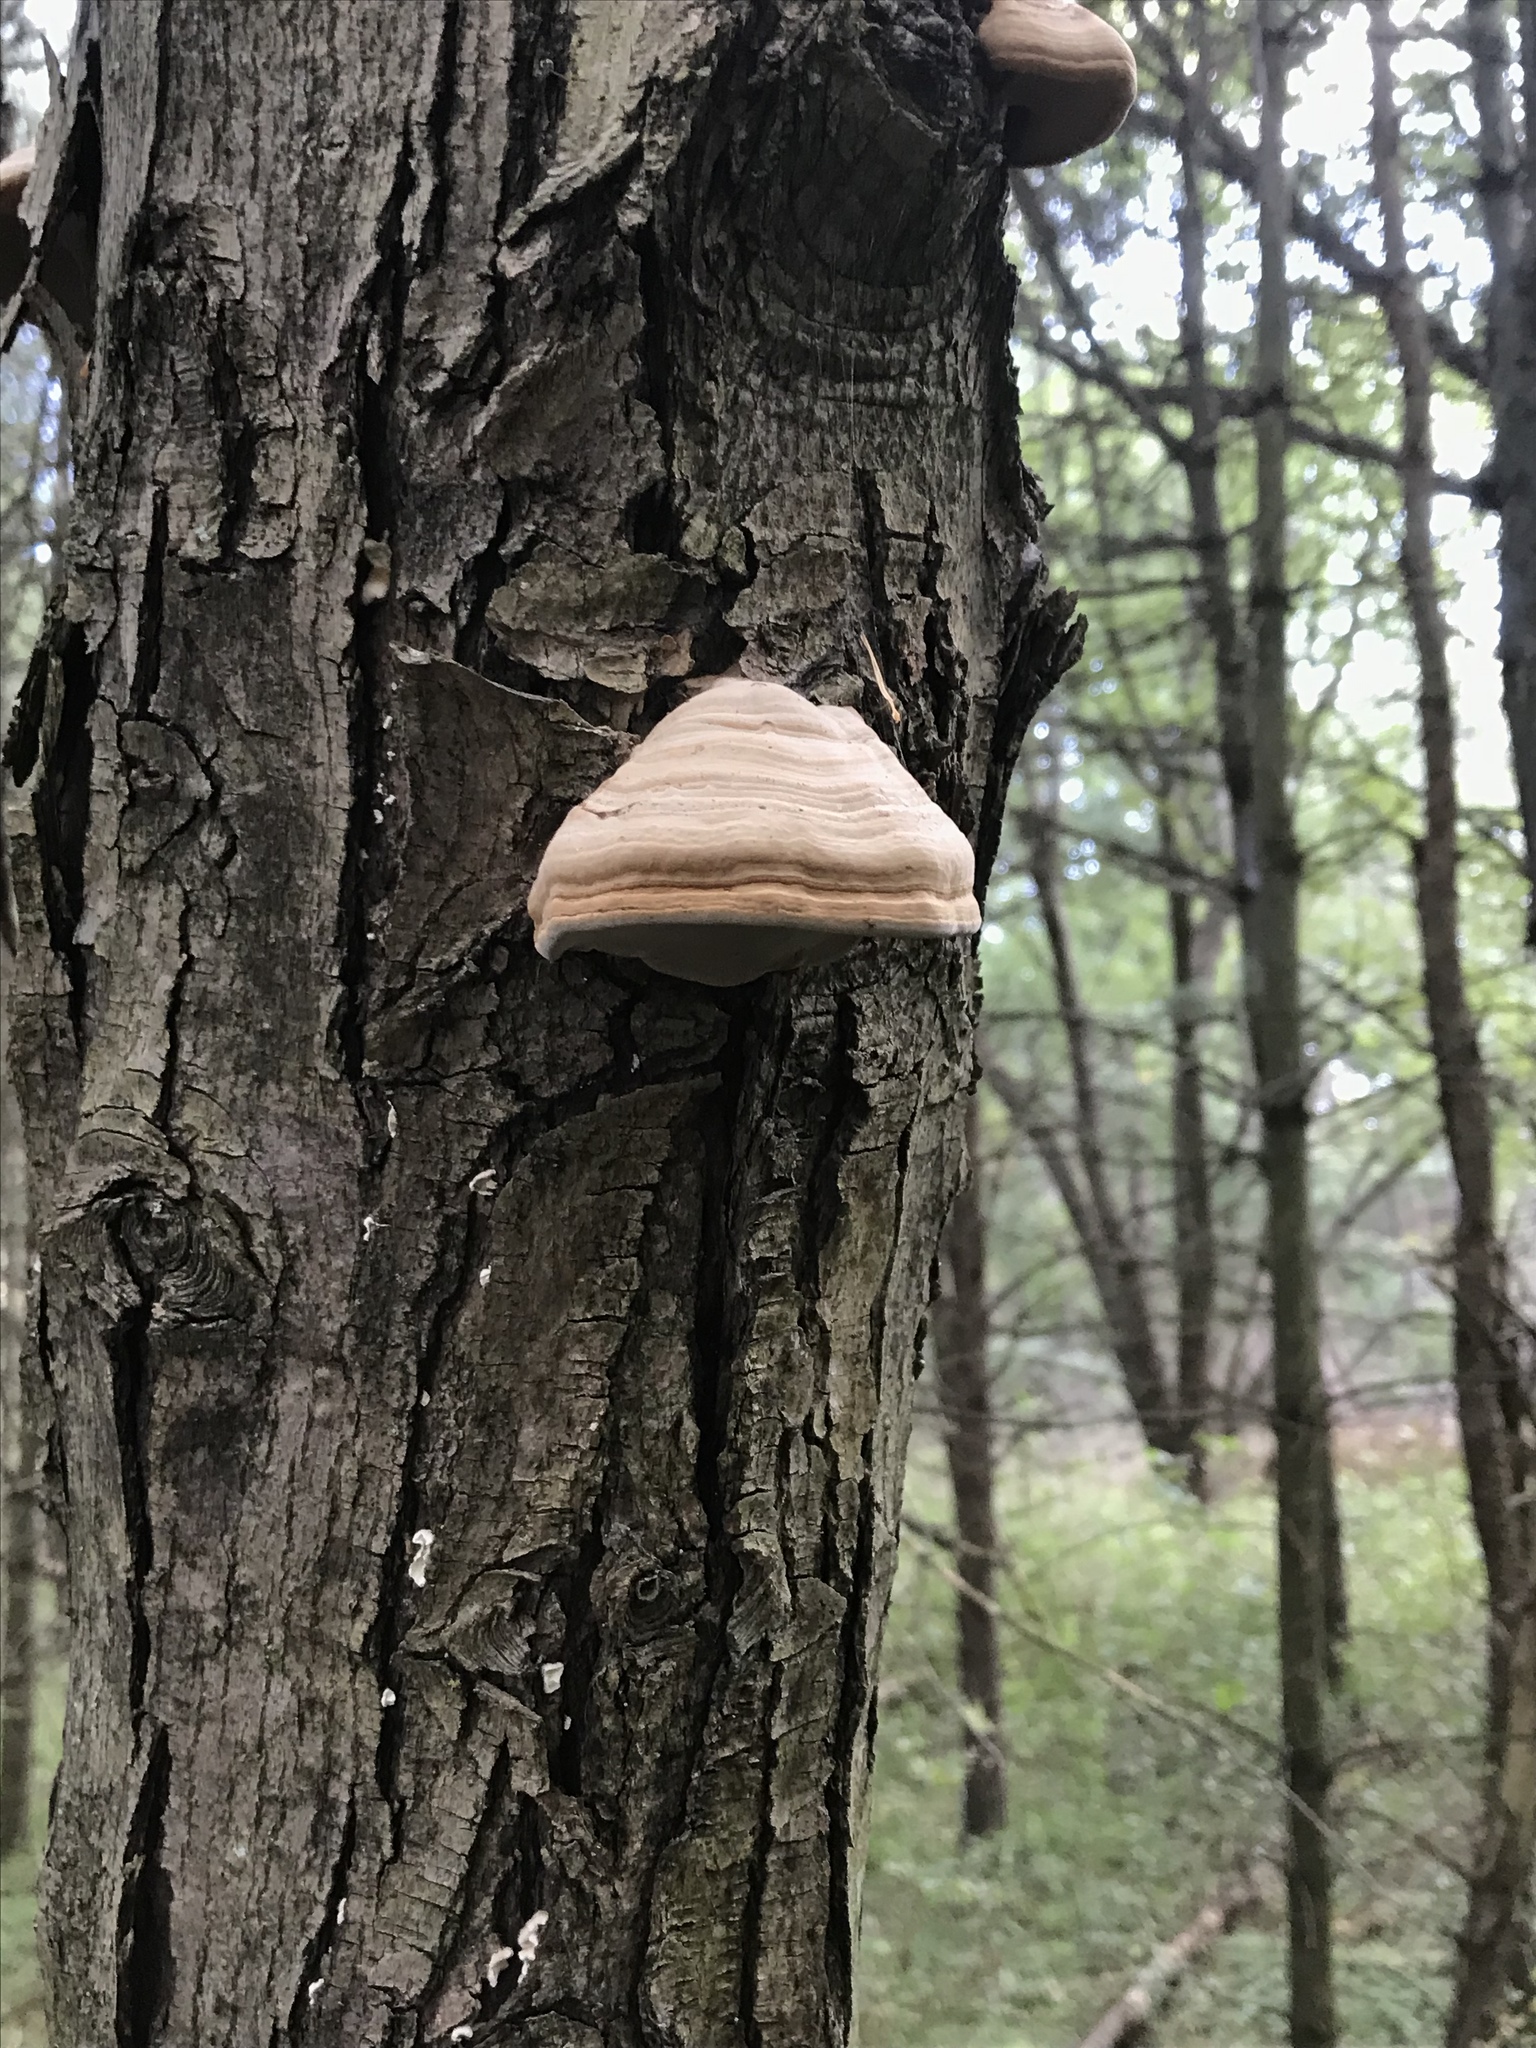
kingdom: Fungi
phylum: Basidiomycota
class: Agaricomycetes
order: Polyporales
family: Polyporaceae
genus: Fomes
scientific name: Fomes fomentarius
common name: Hoof fungus
